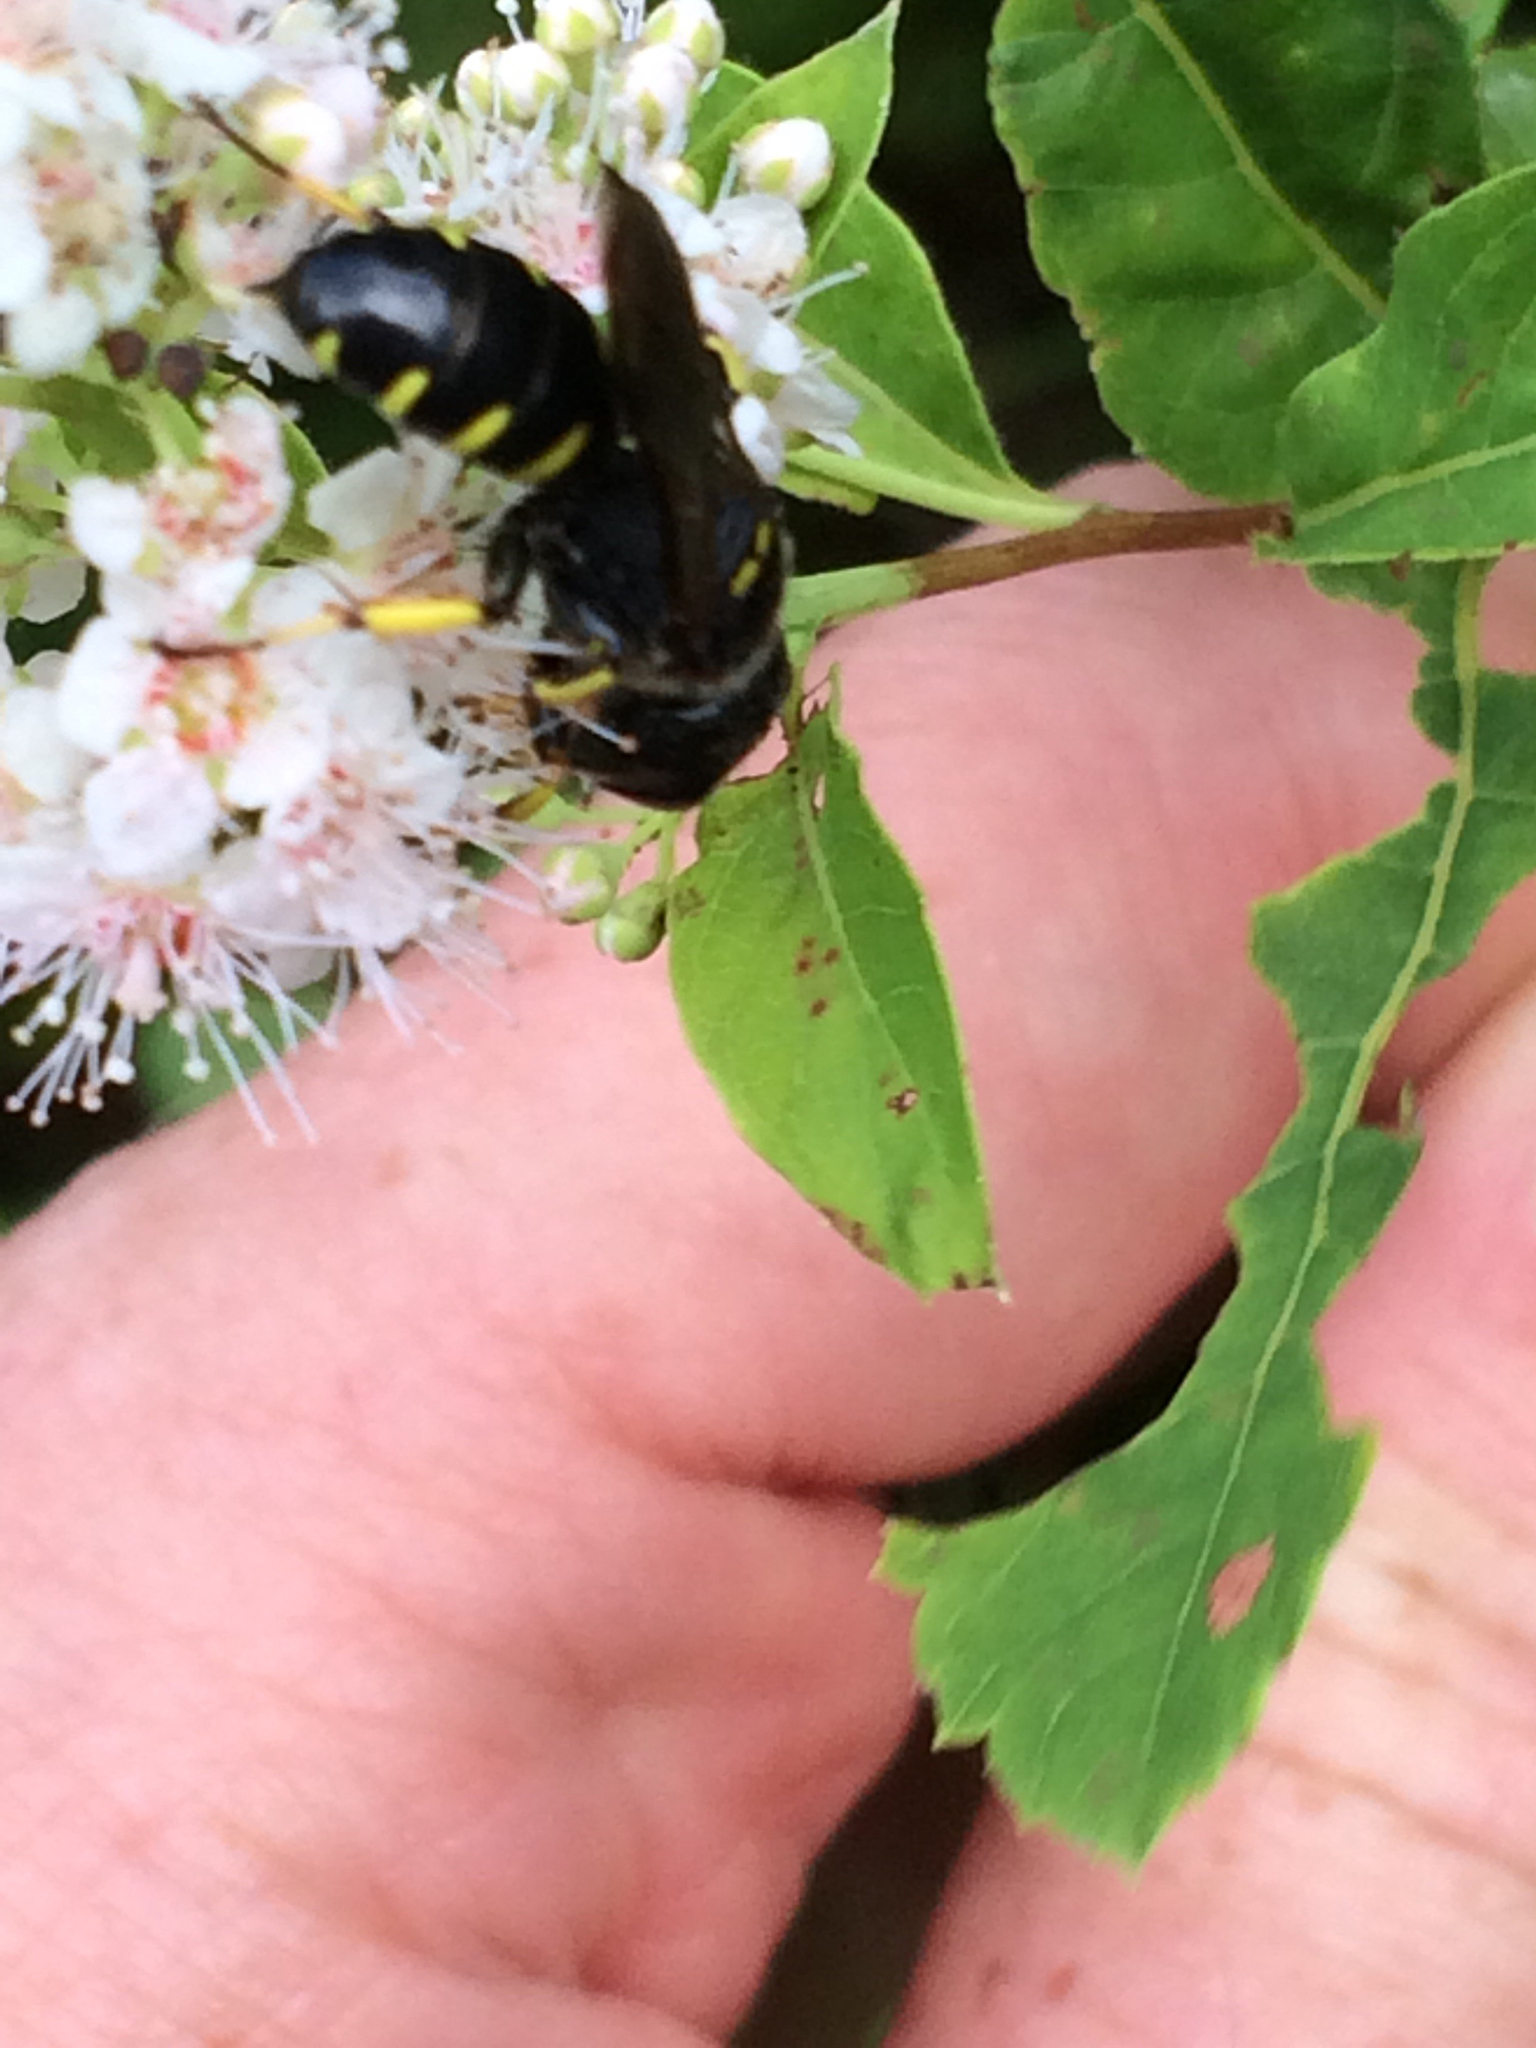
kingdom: Animalia
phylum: Arthropoda
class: Insecta
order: Hymenoptera
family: Crabronidae
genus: Ectemnius
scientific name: Ectemnius maculosus
